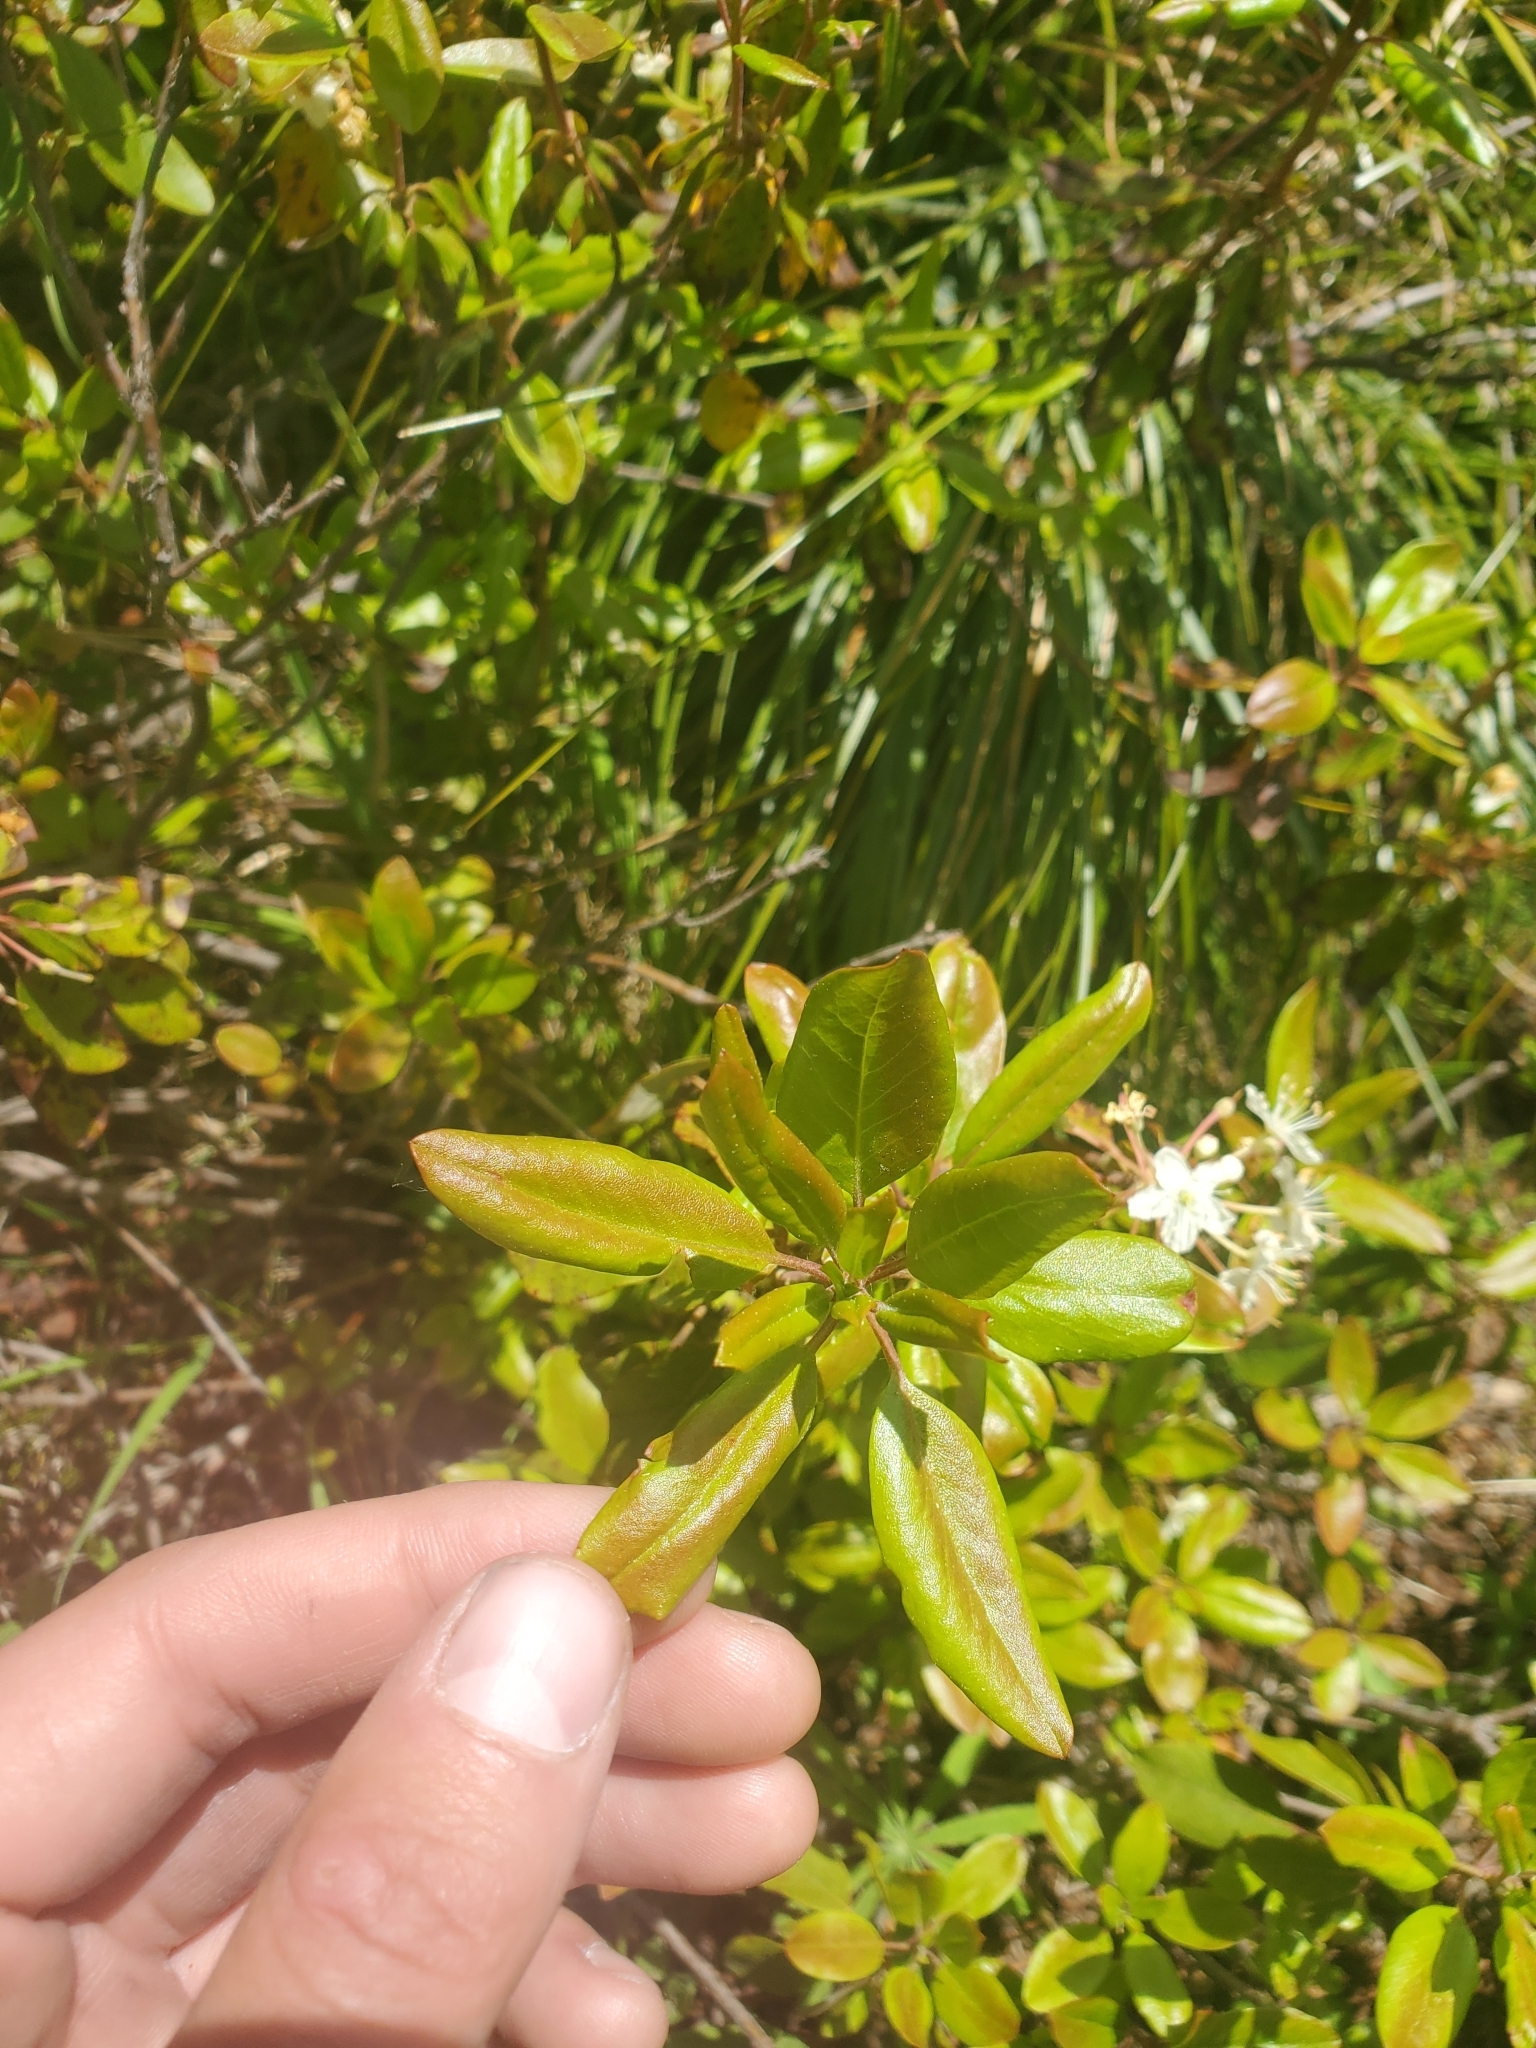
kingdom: Plantae
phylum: Tracheophyta
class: Magnoliopsida
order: Ericales
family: Ericaceae
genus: Rhododendron
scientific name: Rhododendron columbianum
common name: Western labrador tea
